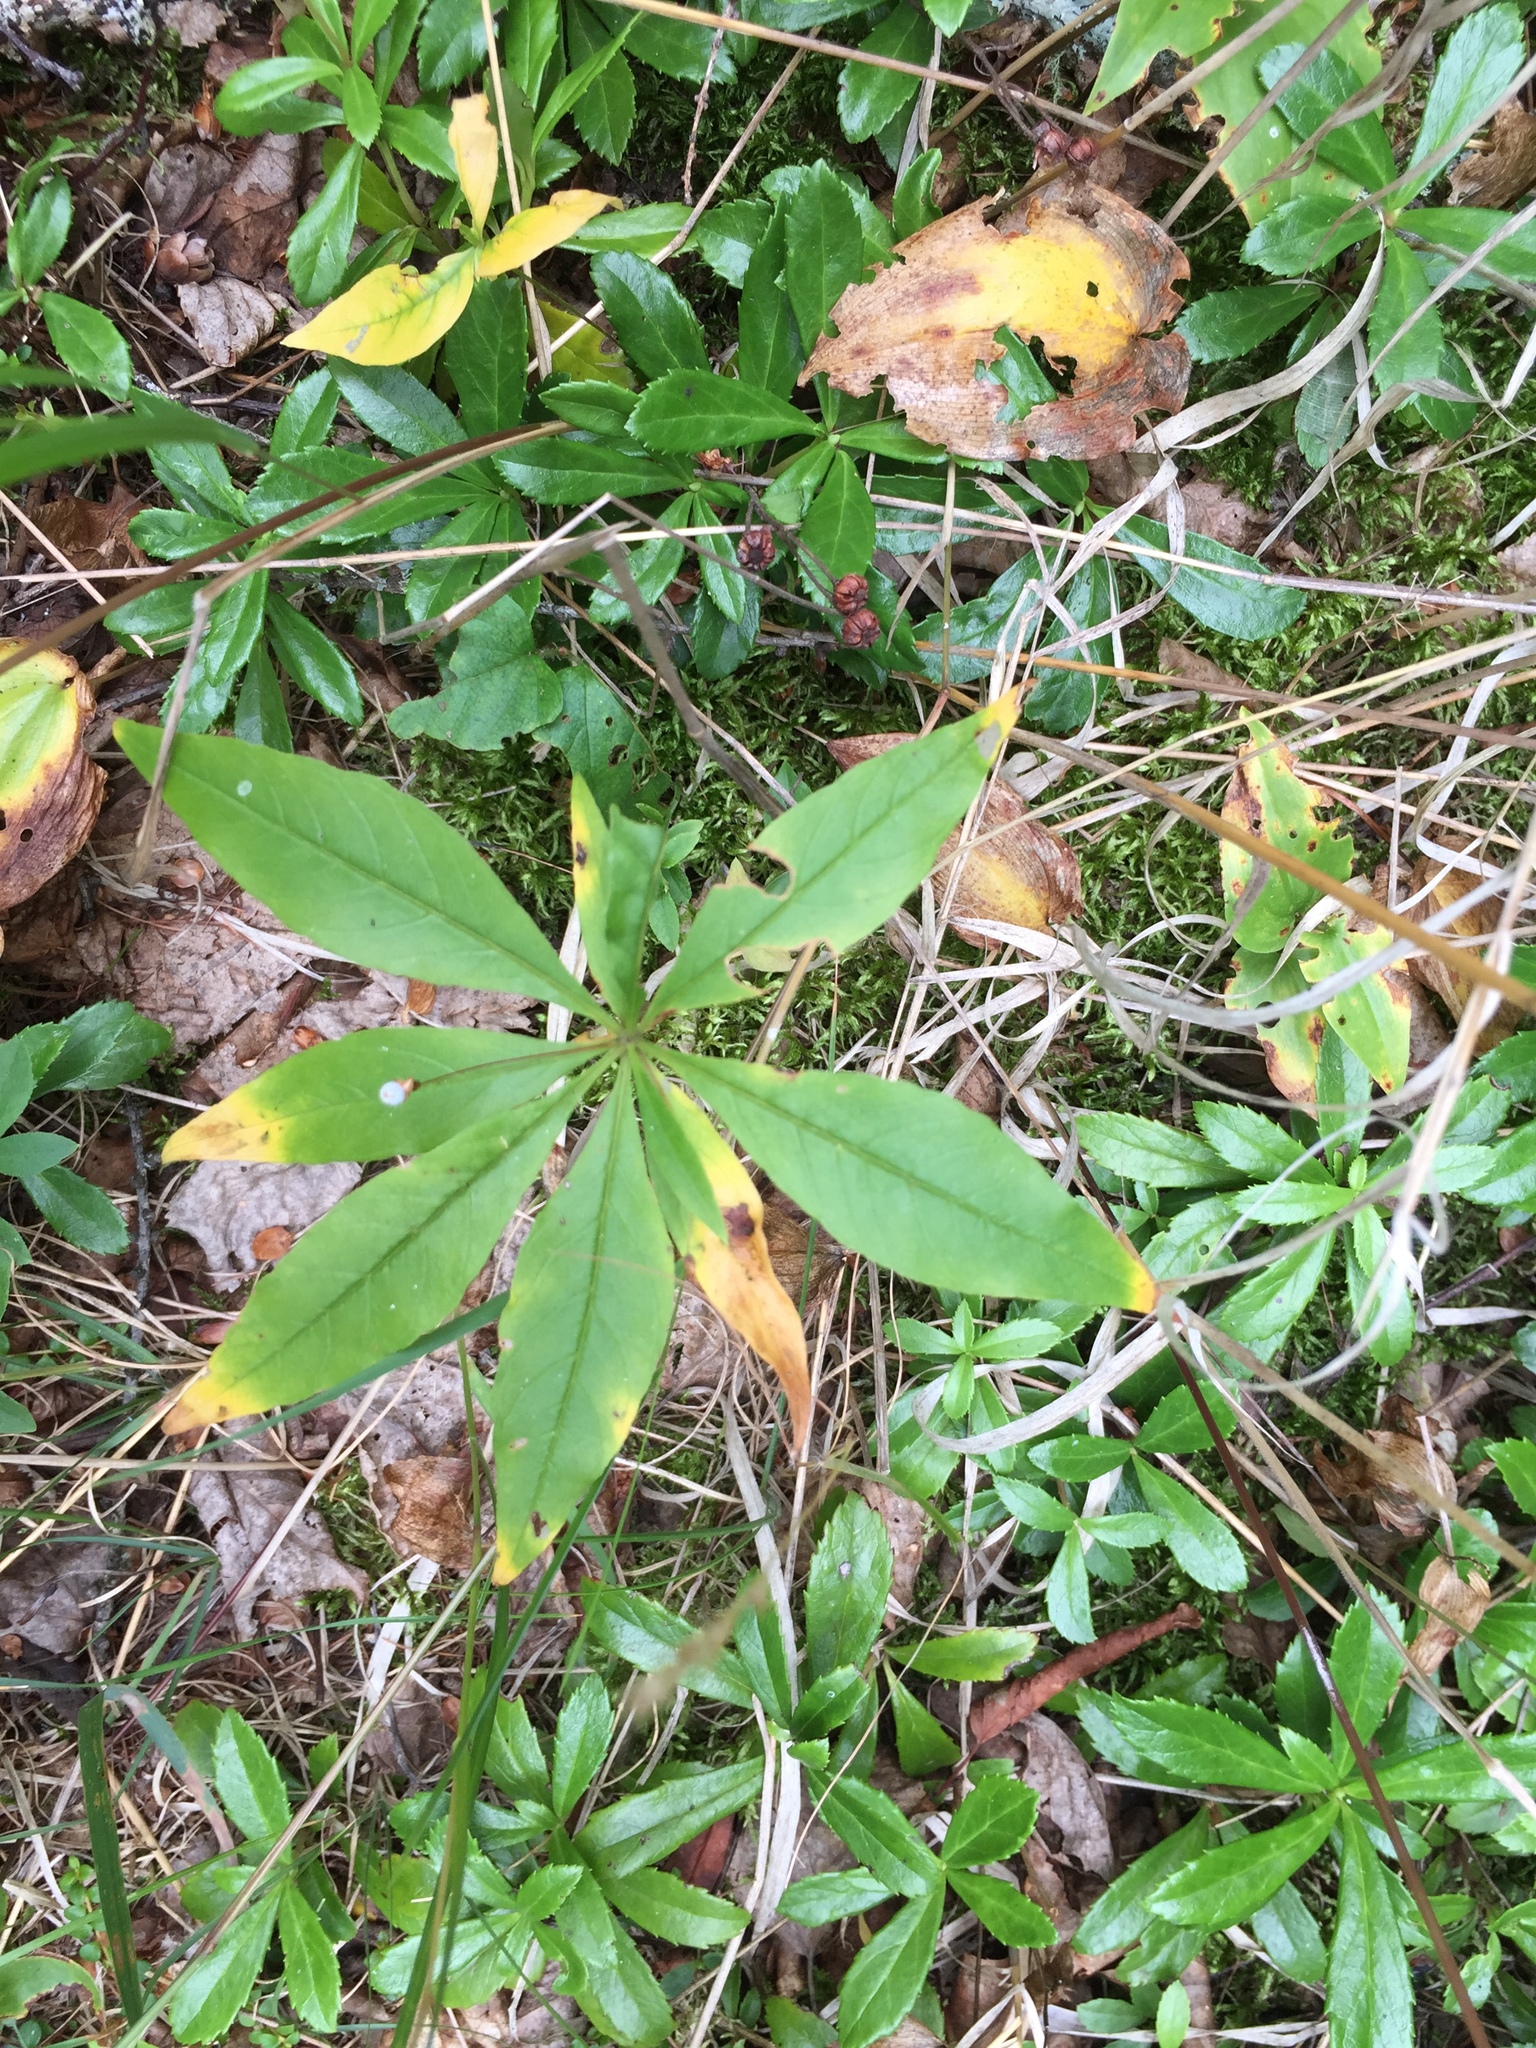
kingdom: Plantae
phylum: Tracheophyta
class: Magnoliopsida
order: Ericales
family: Primulaceae
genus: Lysimachia
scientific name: Lysimachia borealis
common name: American starflower
